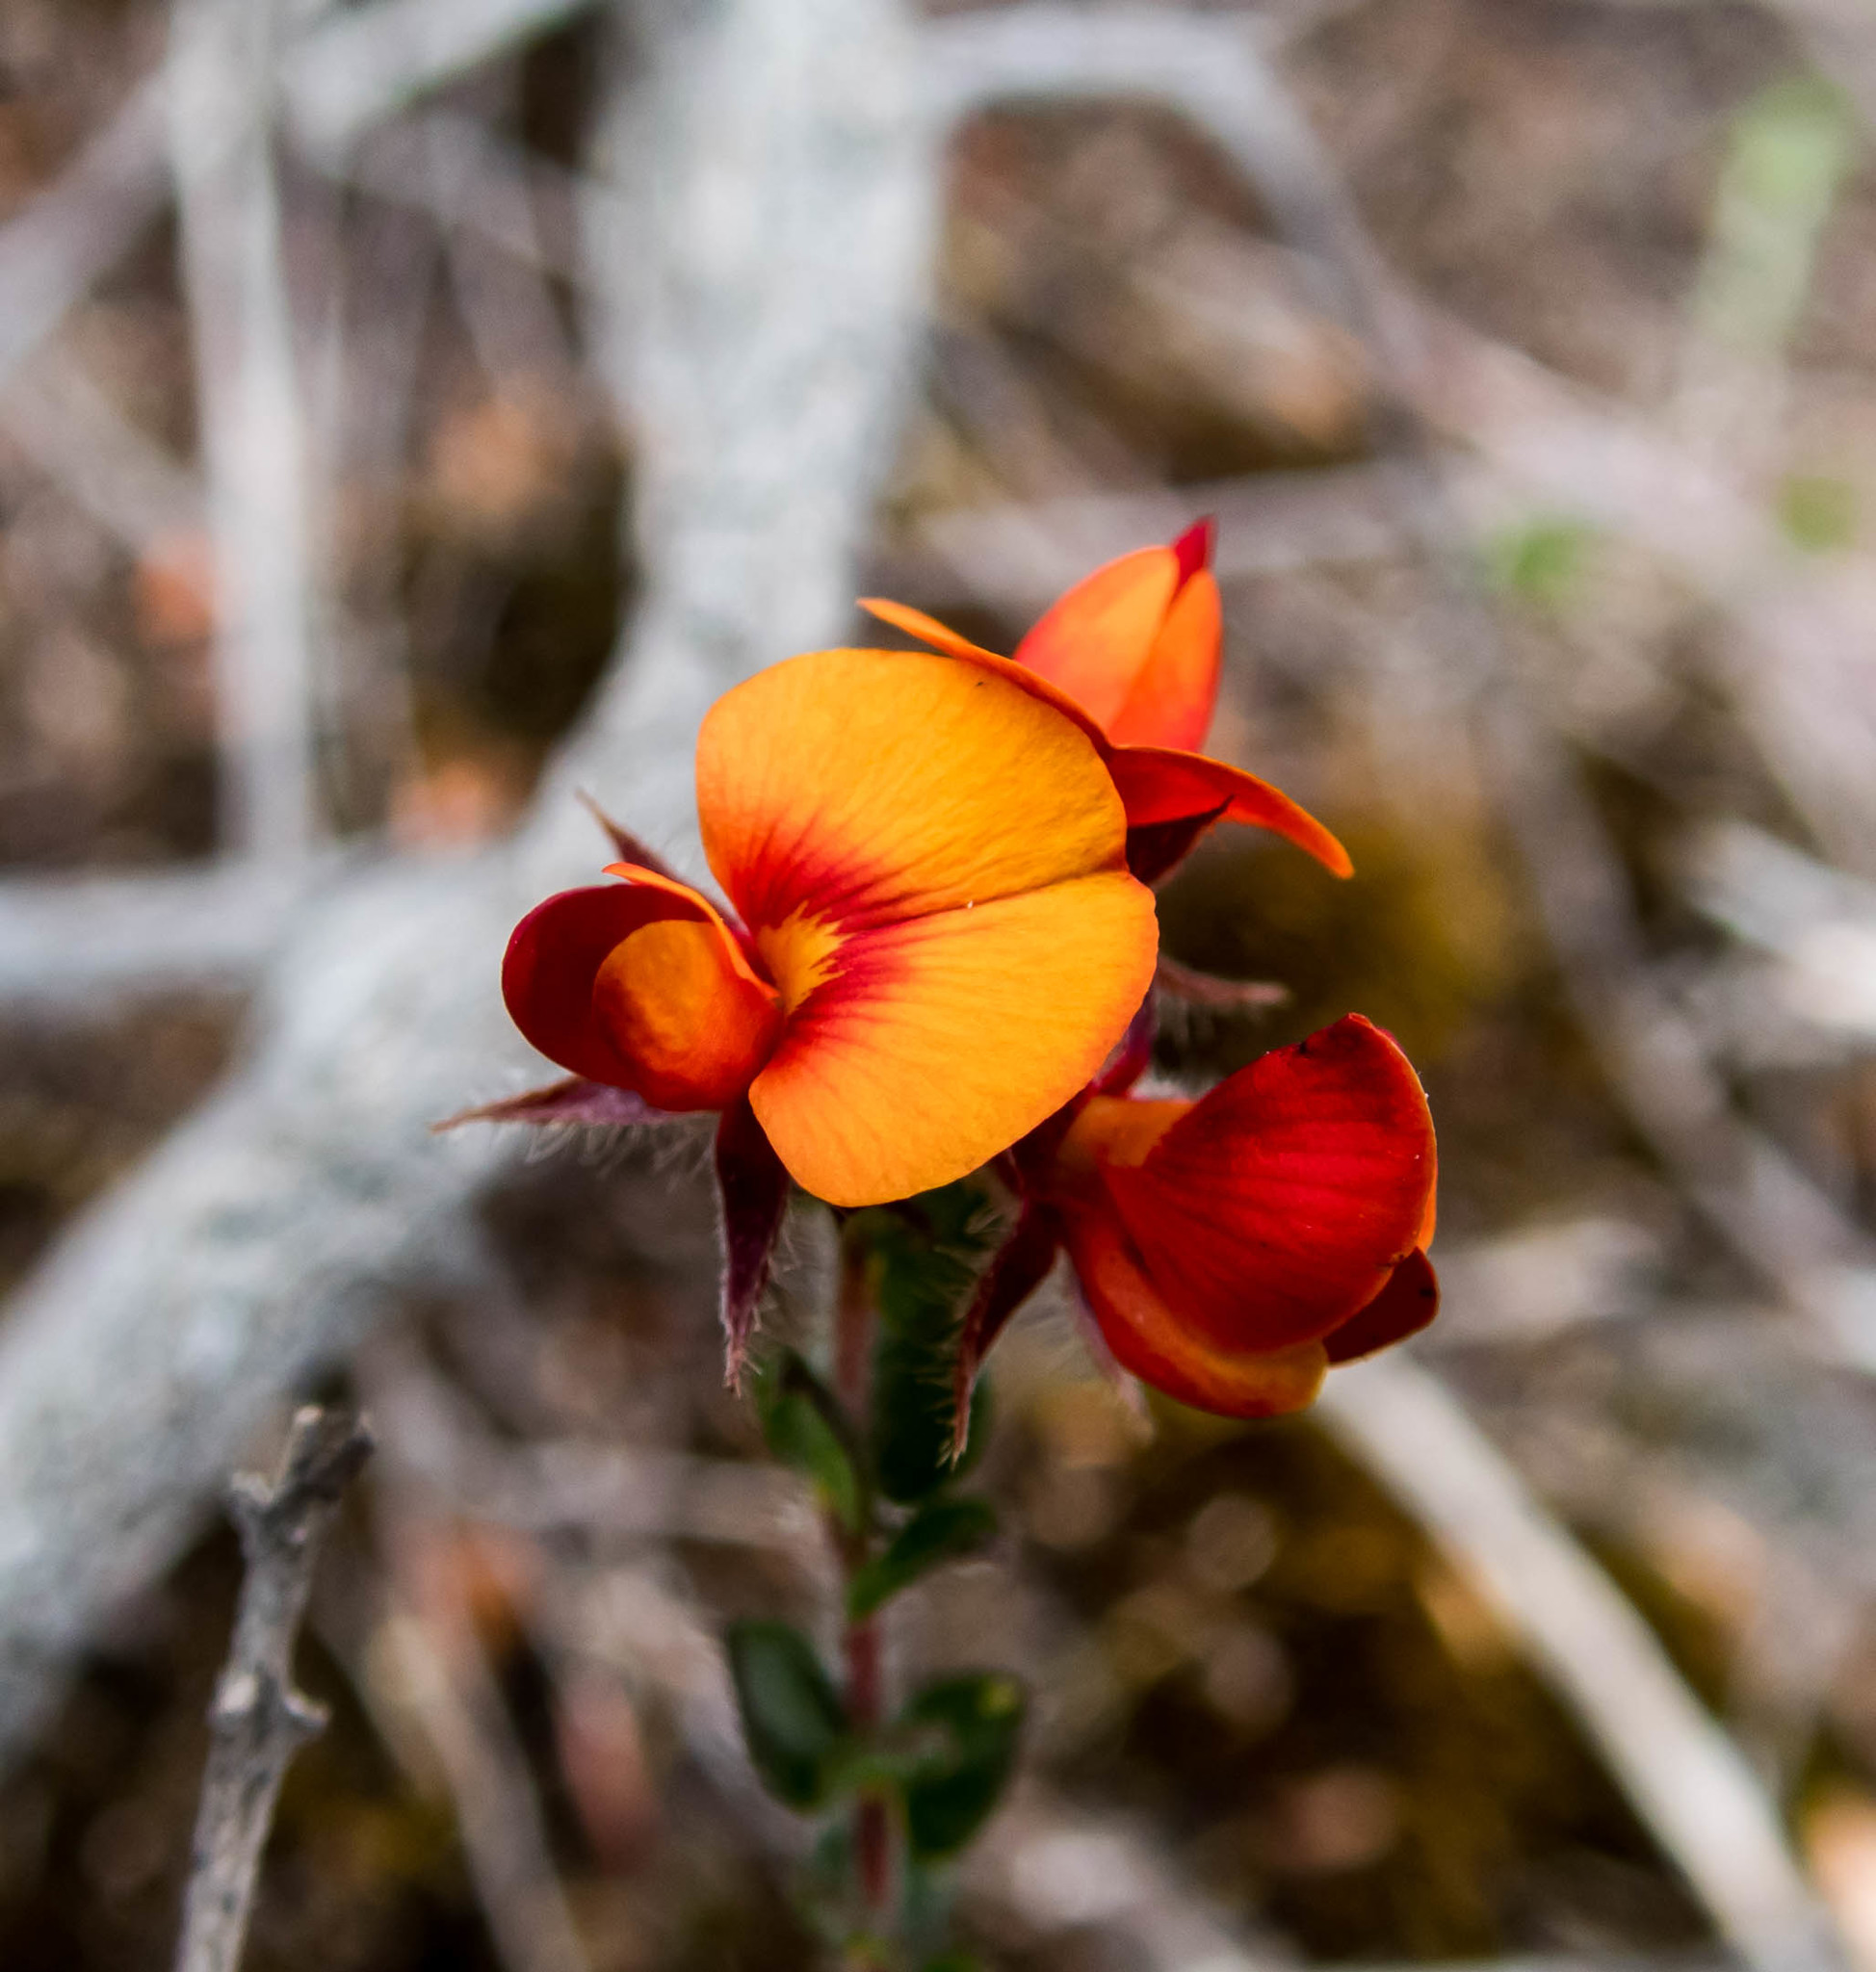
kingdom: Plantae
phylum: Tracheophyta
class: Magnoliopsida
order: Fabales
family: Fabaceae
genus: Oxylobium
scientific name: Oxylobium cordifolium
